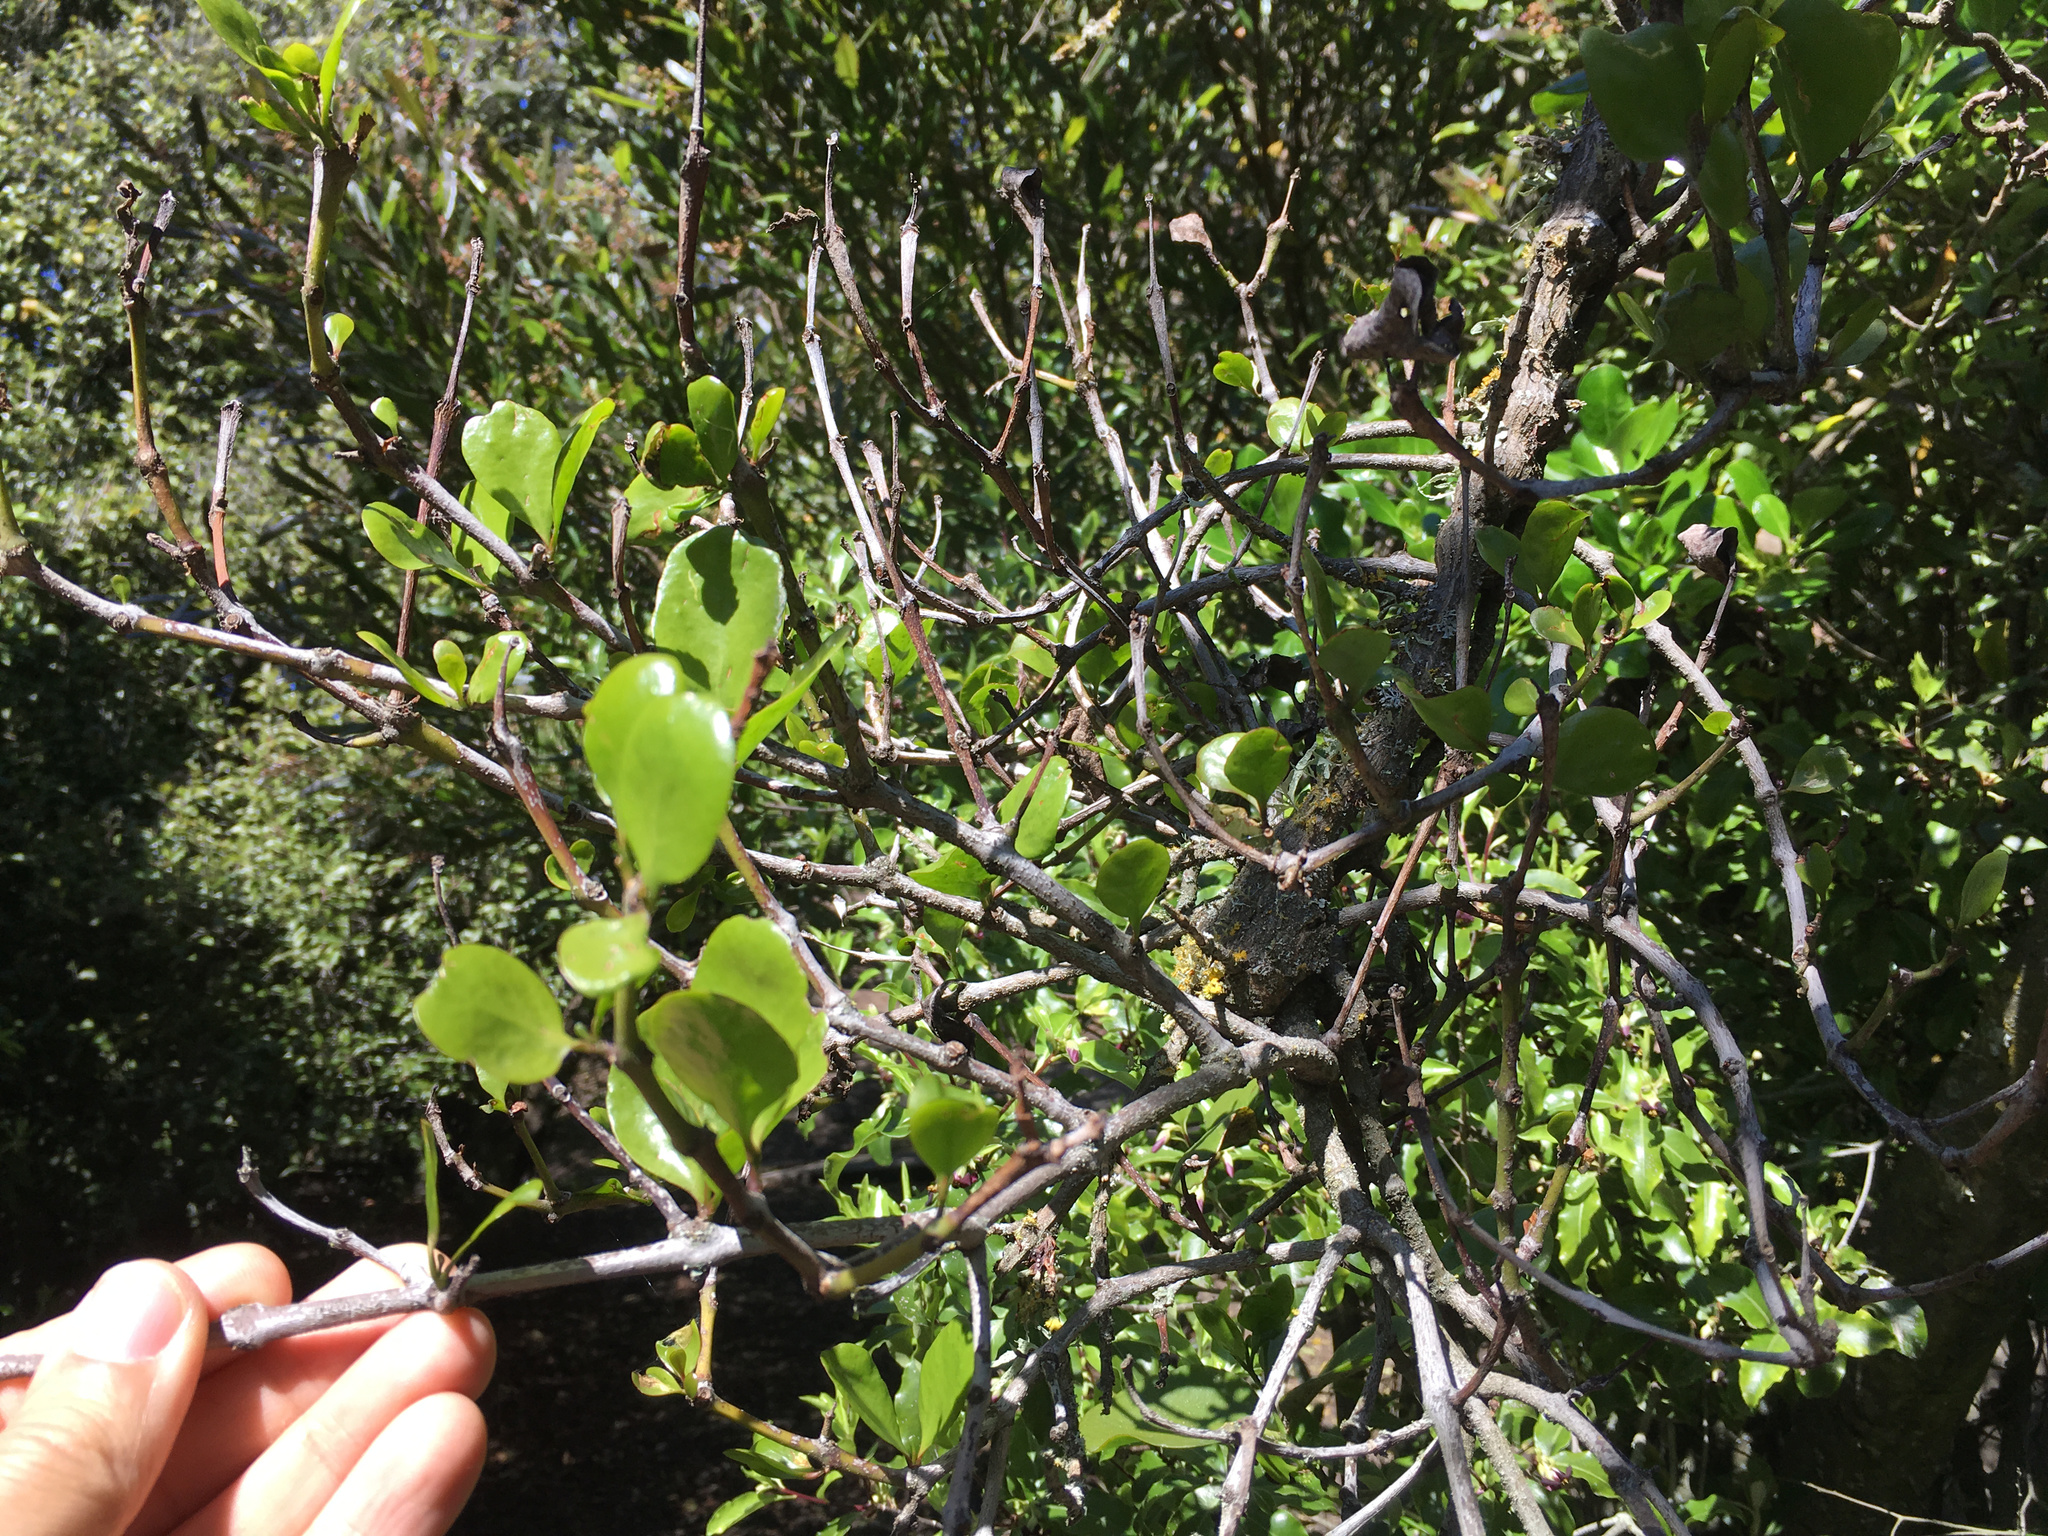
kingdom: Plantae
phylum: Tracheophyta
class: Magnoliopsida
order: Santalales
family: Loranthaceae
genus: Ileostylus
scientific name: Ileostylus micranthus
